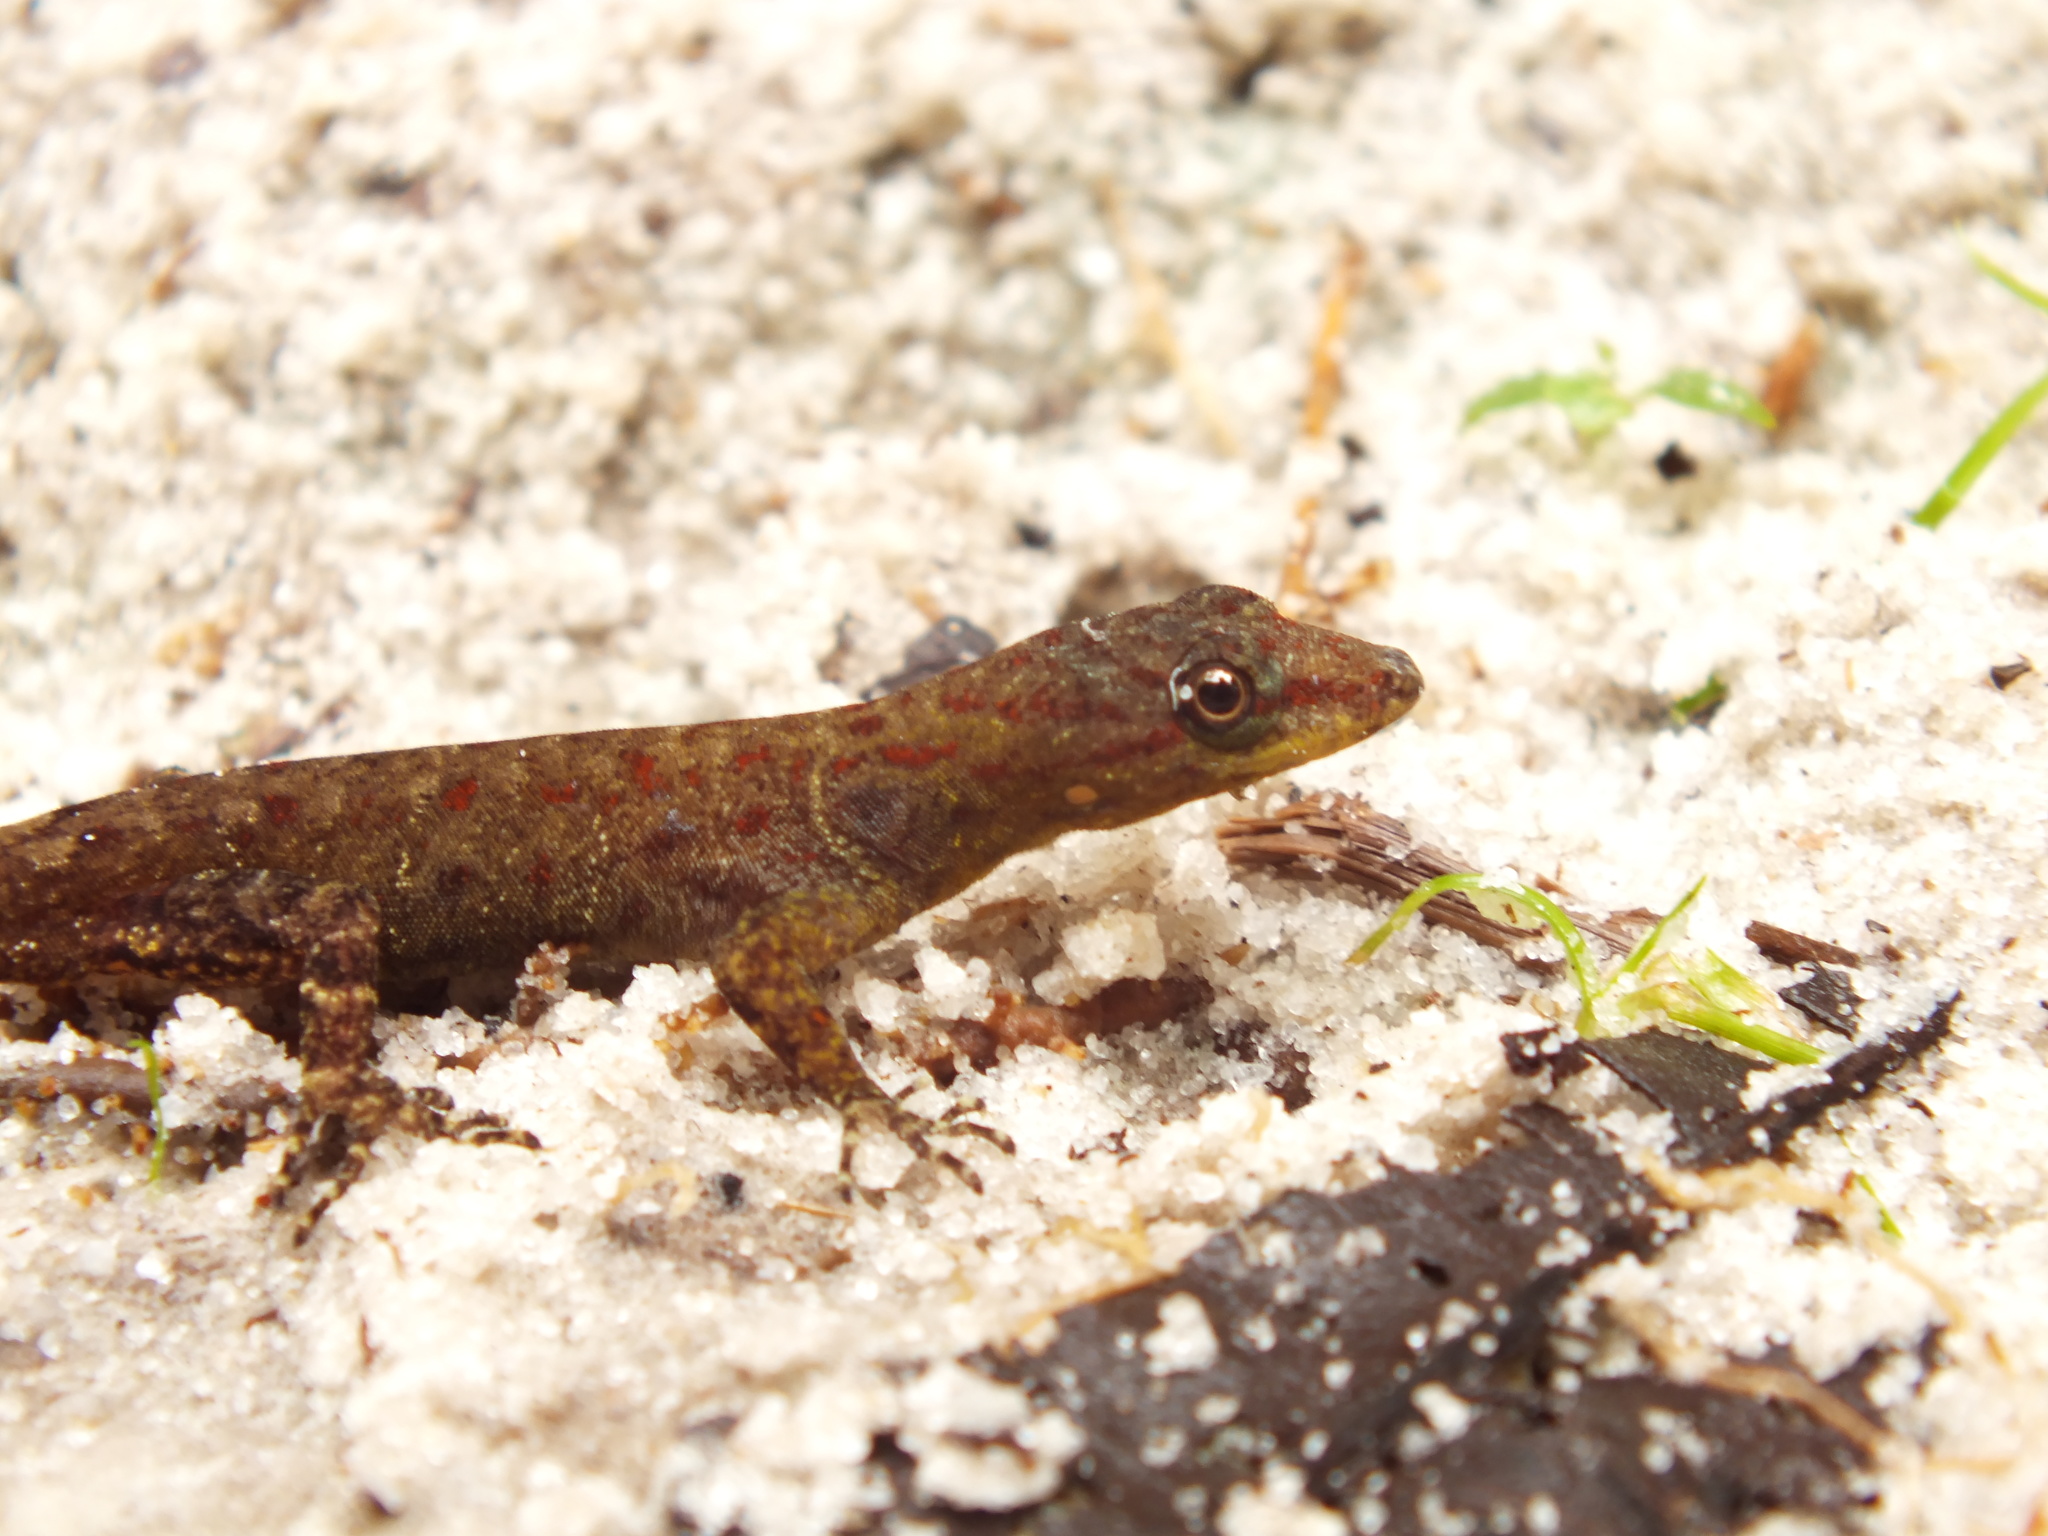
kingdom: Animalia
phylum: Chordata
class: Squamata
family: Sphaerodactylidae
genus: Gonatodes
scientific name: Gonatodes humeralis
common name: South american clawed gecko
